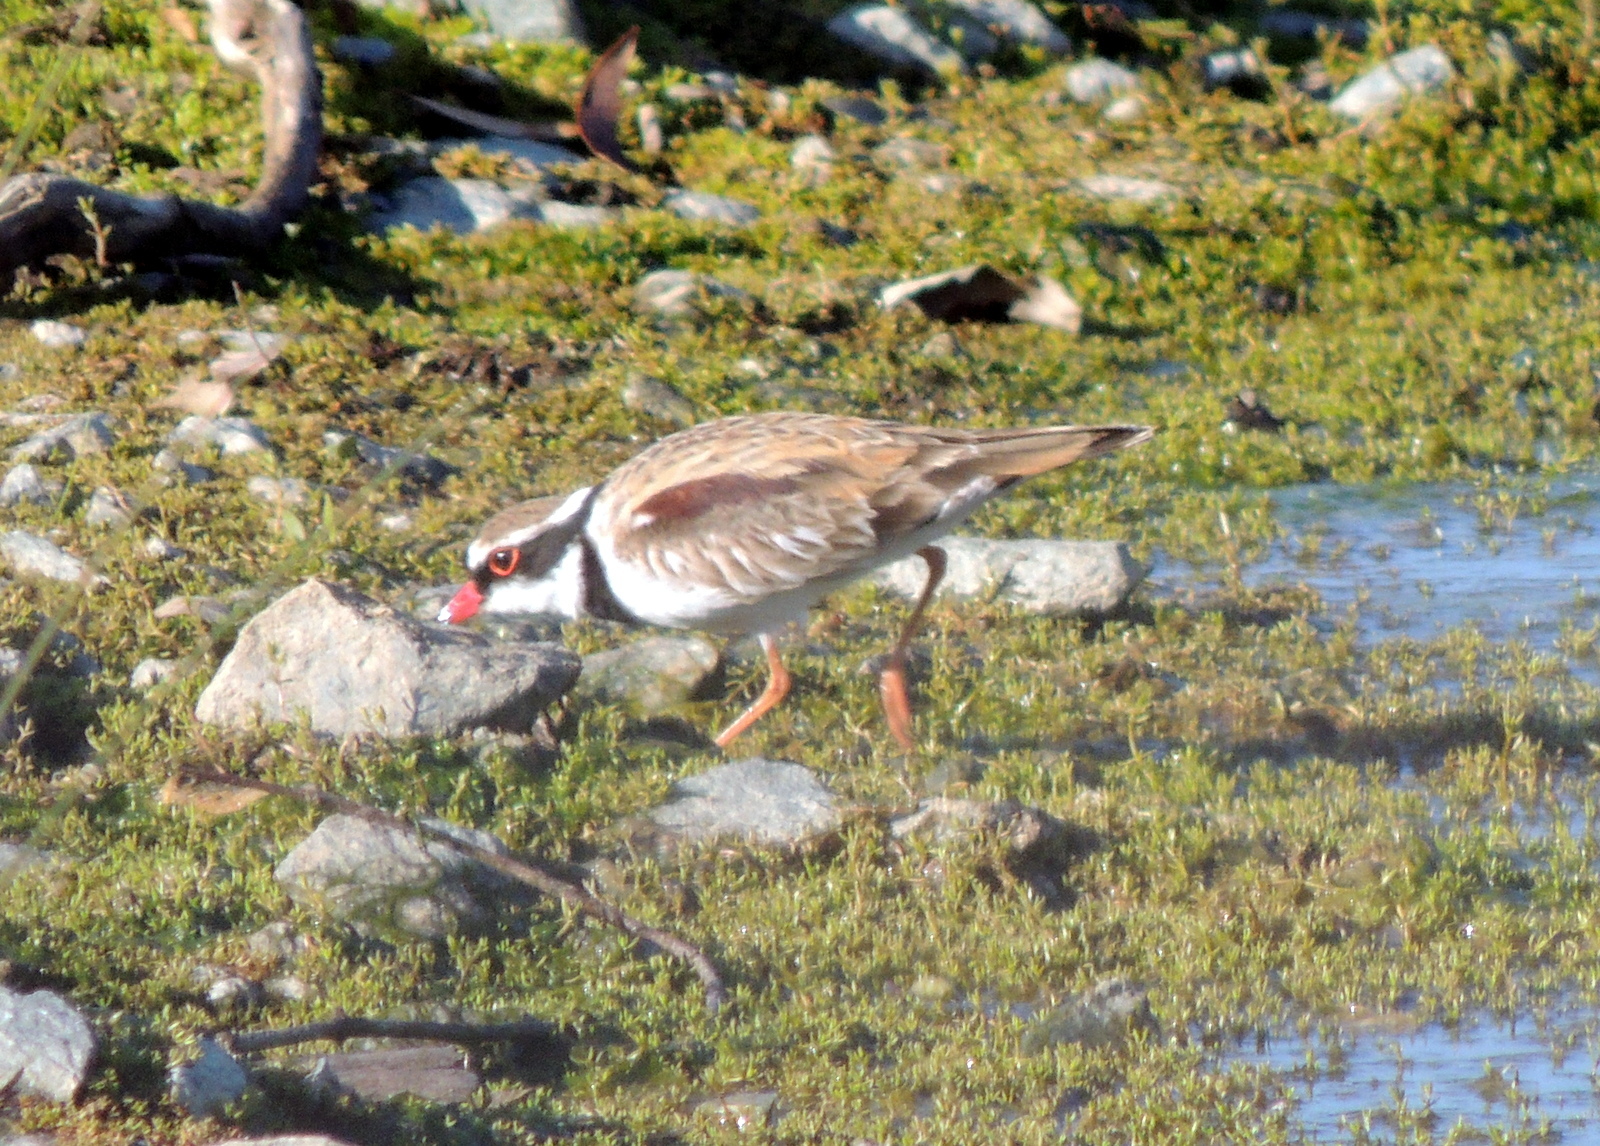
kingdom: Animalia
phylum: Chordata
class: Aves
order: Charadriiformes
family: Charadriidae
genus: Elseyornis
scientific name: Elseyornis melanops
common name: Black-fronted dotterel
